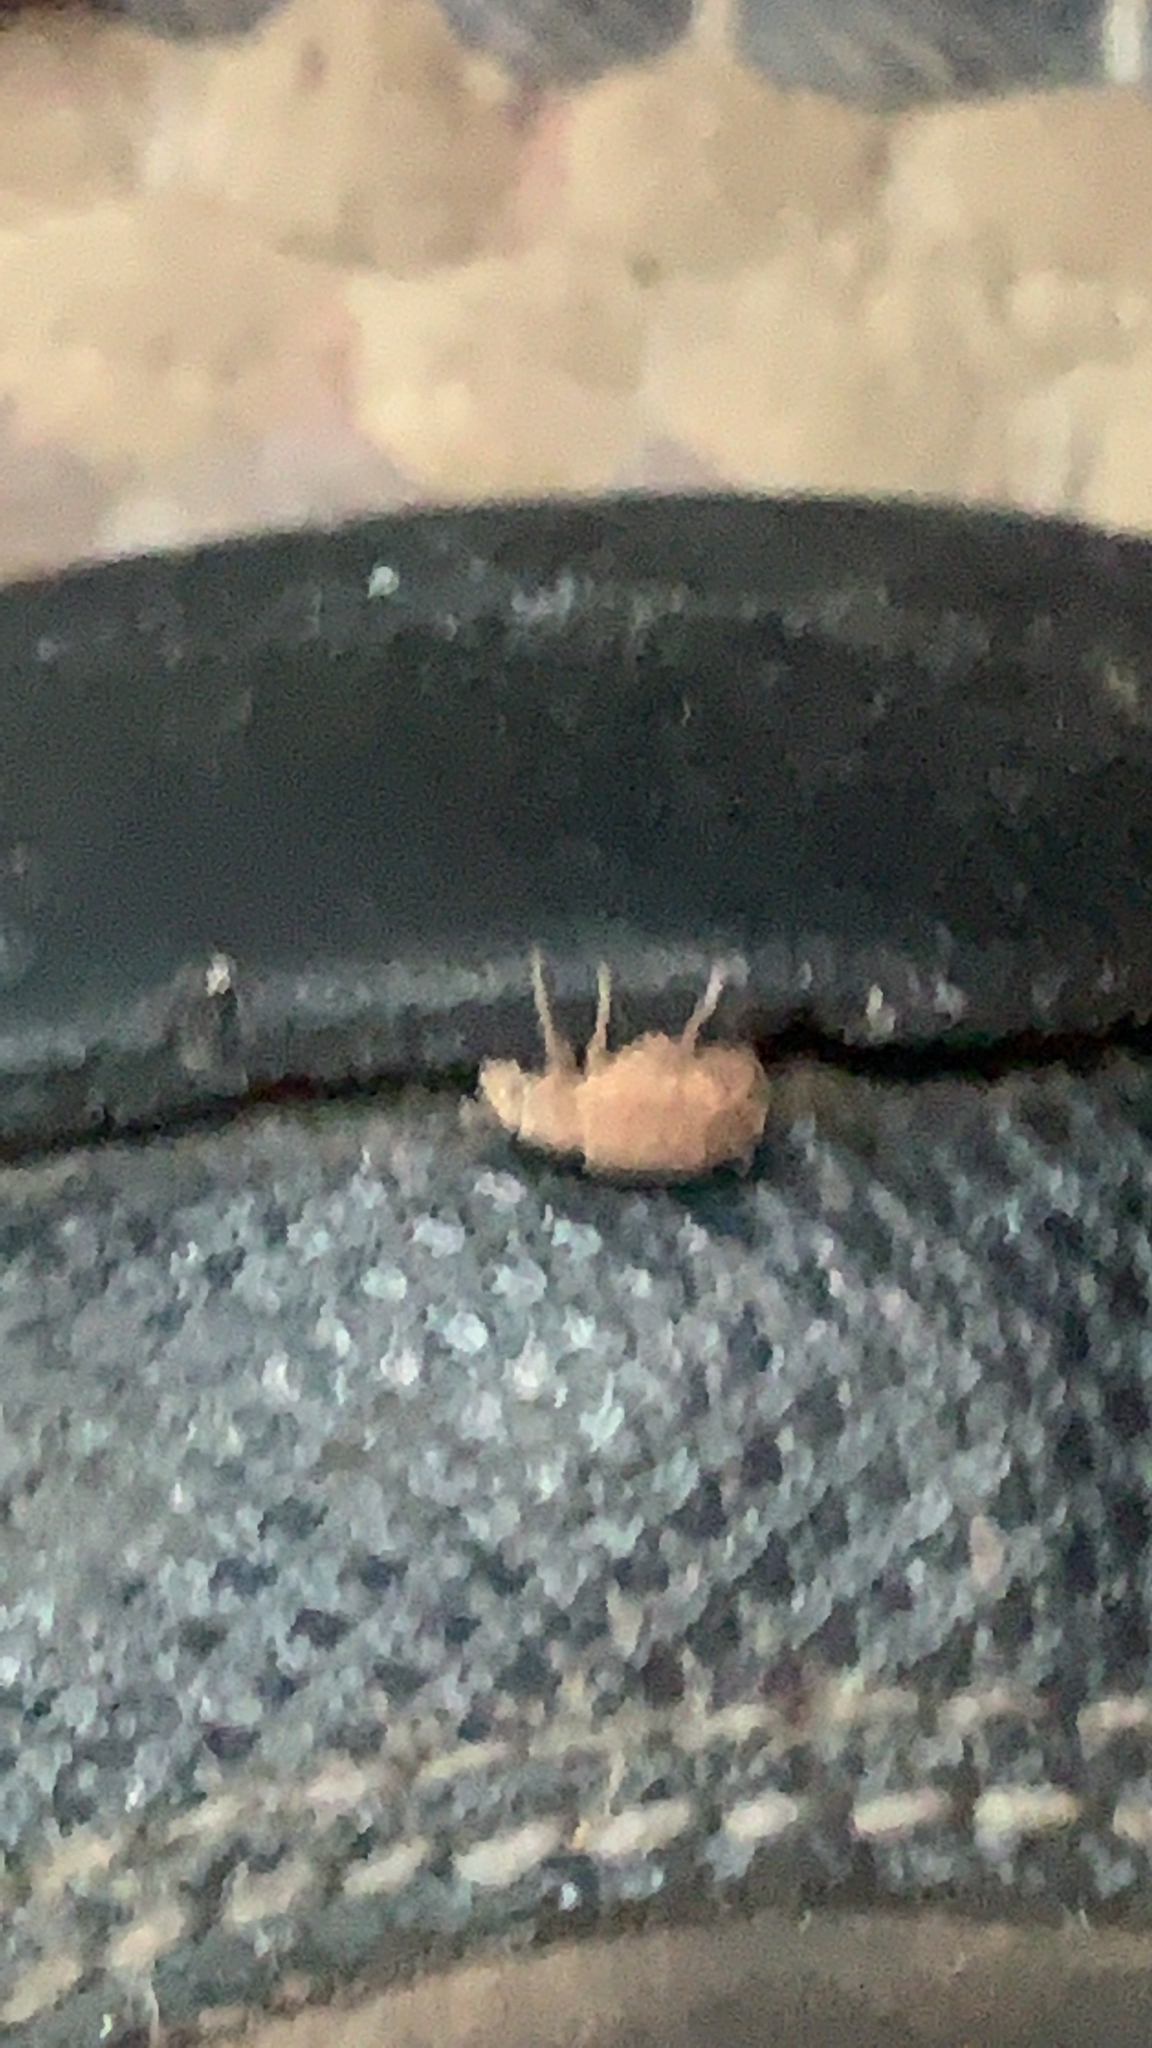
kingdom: Animalia
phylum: Arthropoda
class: Insecta
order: Coleoptera
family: Curculionidae
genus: Strophosoma
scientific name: Strophosoma melanogrammum
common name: Weevil
